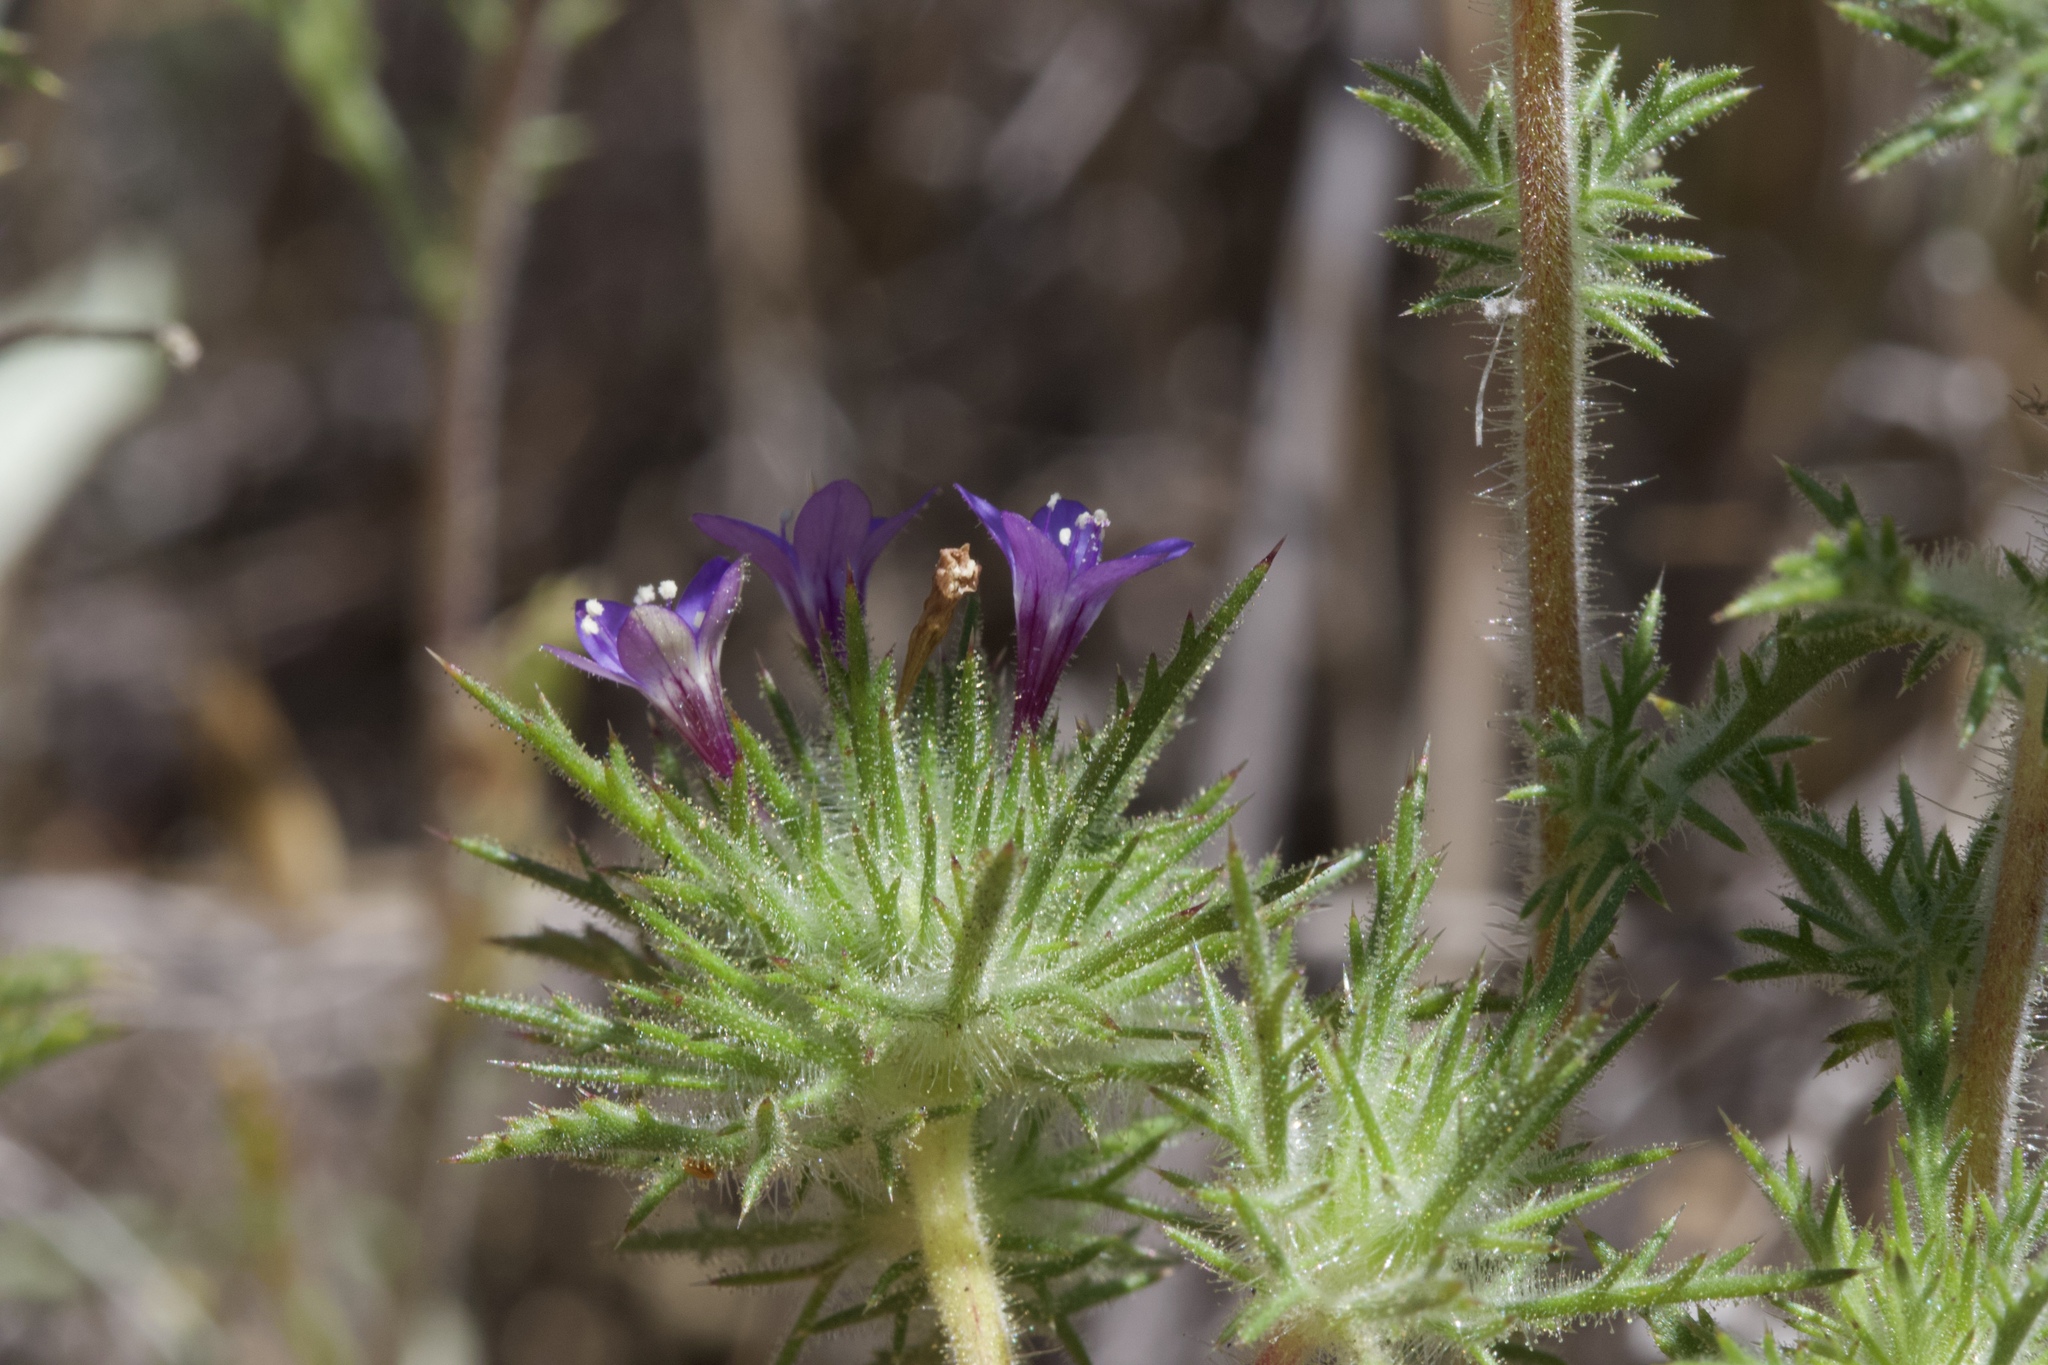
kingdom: Plantae
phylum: Tracheophyta
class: Magnoliopsida
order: Ericales
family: Polemoniaceae
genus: Navarretia
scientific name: Navarretia pubescens
